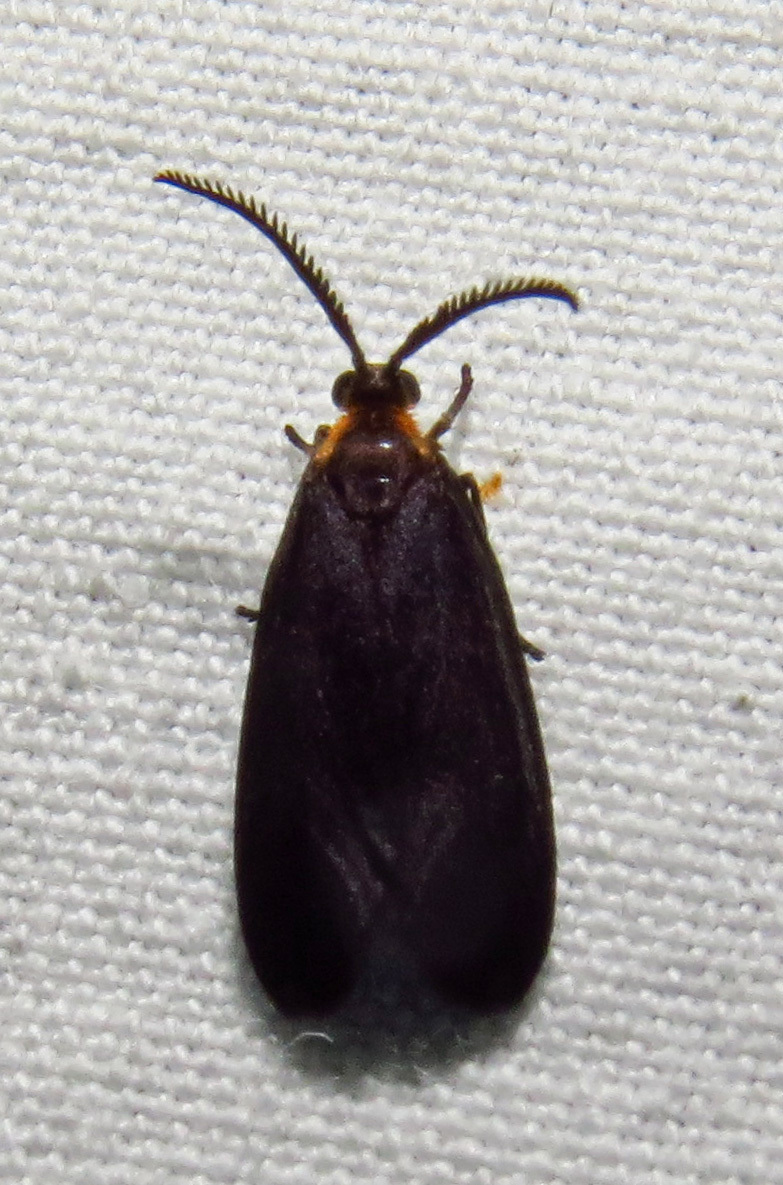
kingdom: Animalia
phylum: Arthropoda
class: Insecta
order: Lepidoptera
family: Zygaenidae
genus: Acoloithus
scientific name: Acoloithus falsarius
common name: Clemens' false skeletonizer
